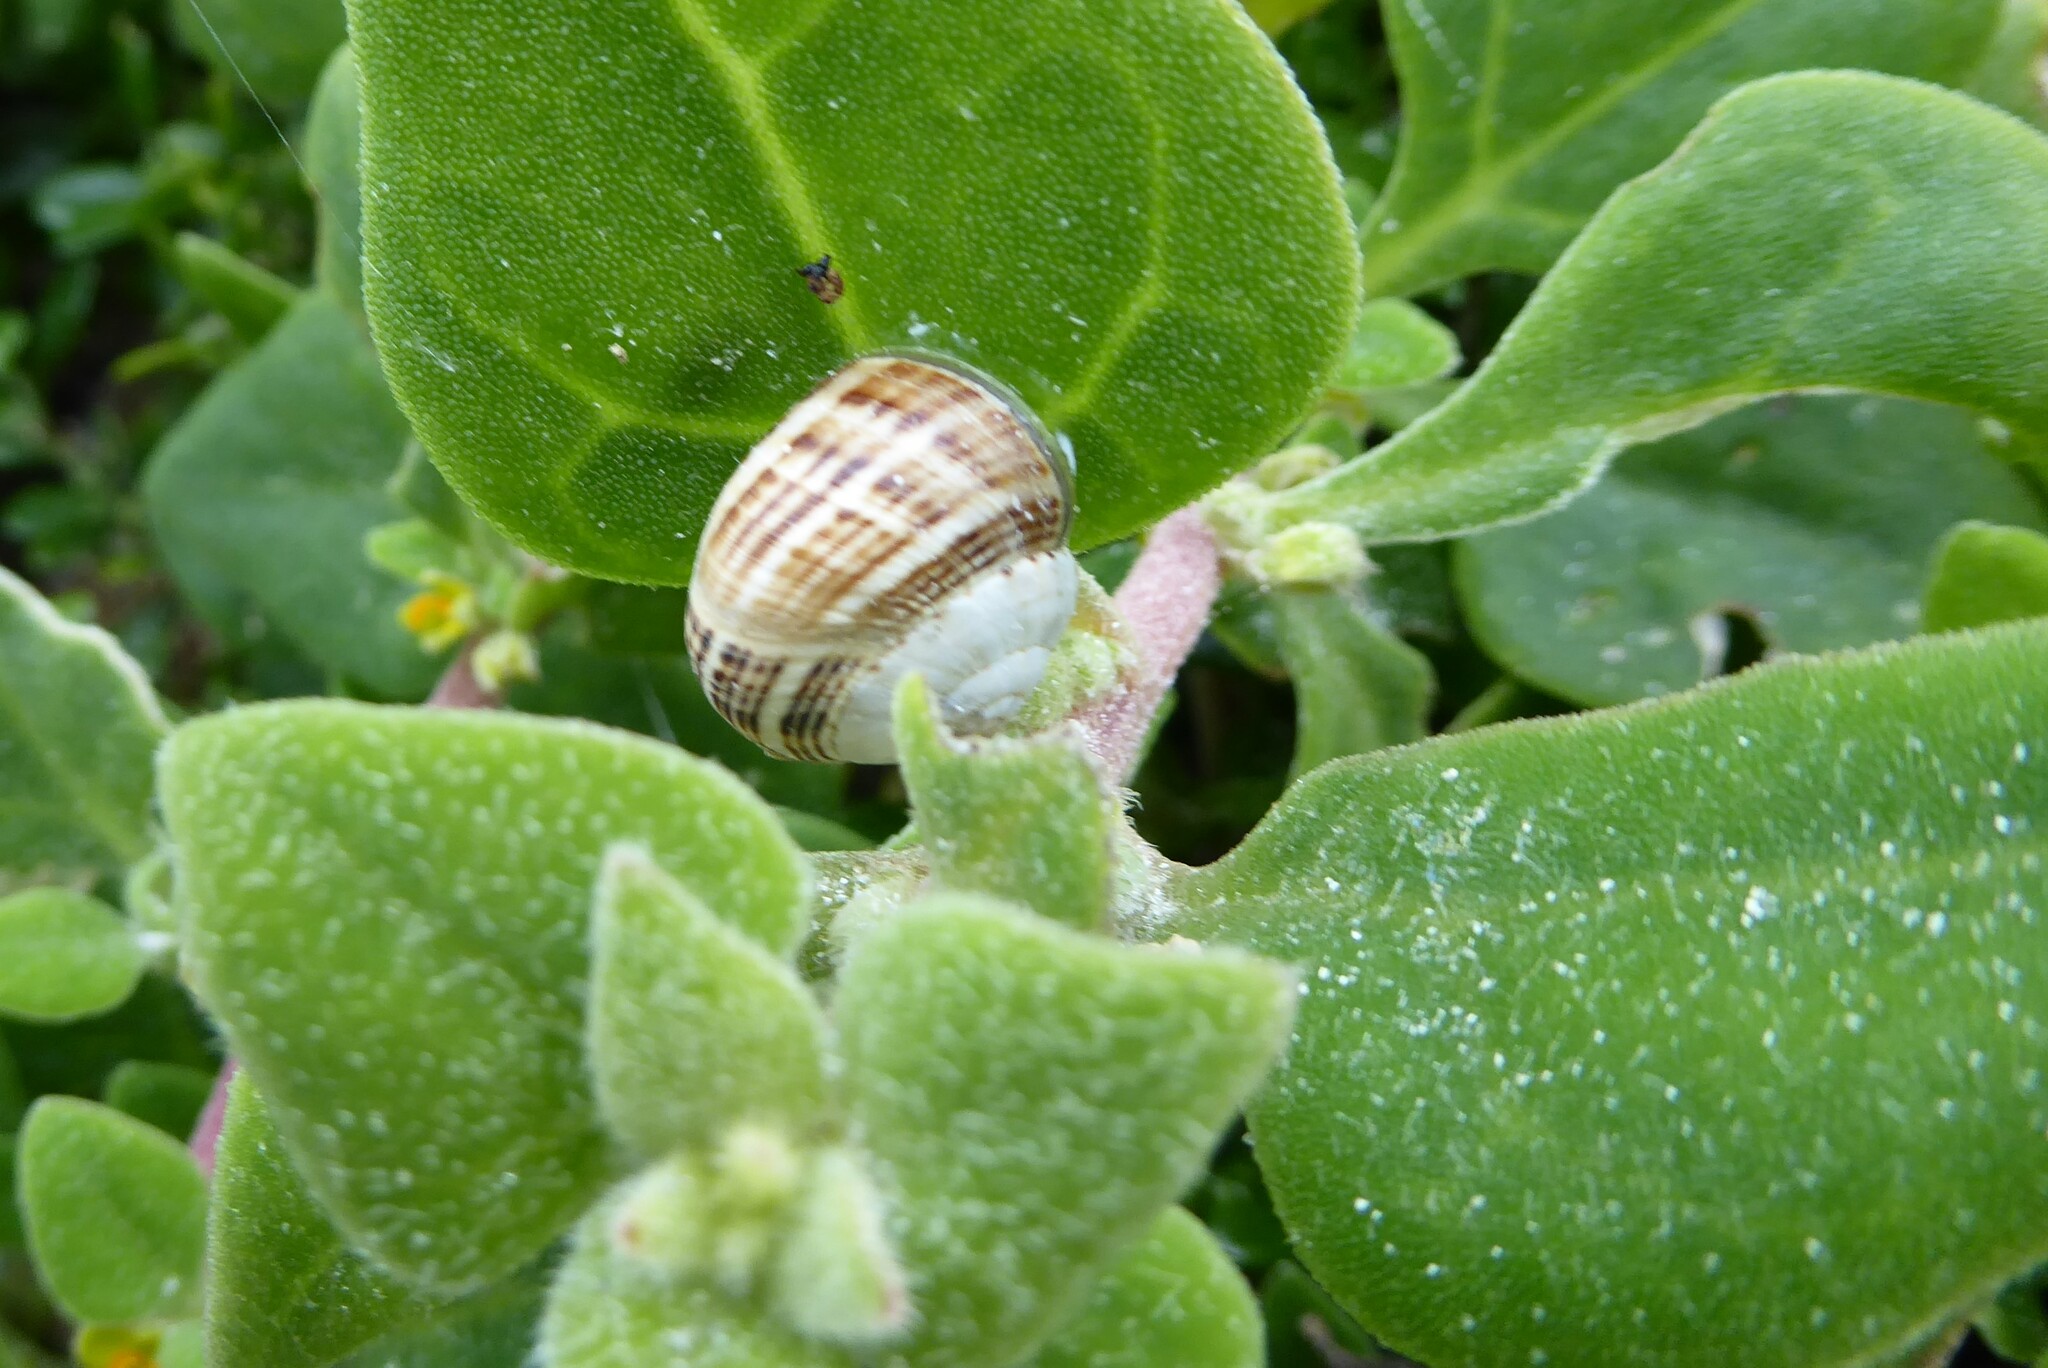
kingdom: Animalia
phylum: Mollusca
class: Gastropoda
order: Stylommatophora
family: Helicidae
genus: Theba
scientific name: Theba pisana
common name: White snail
